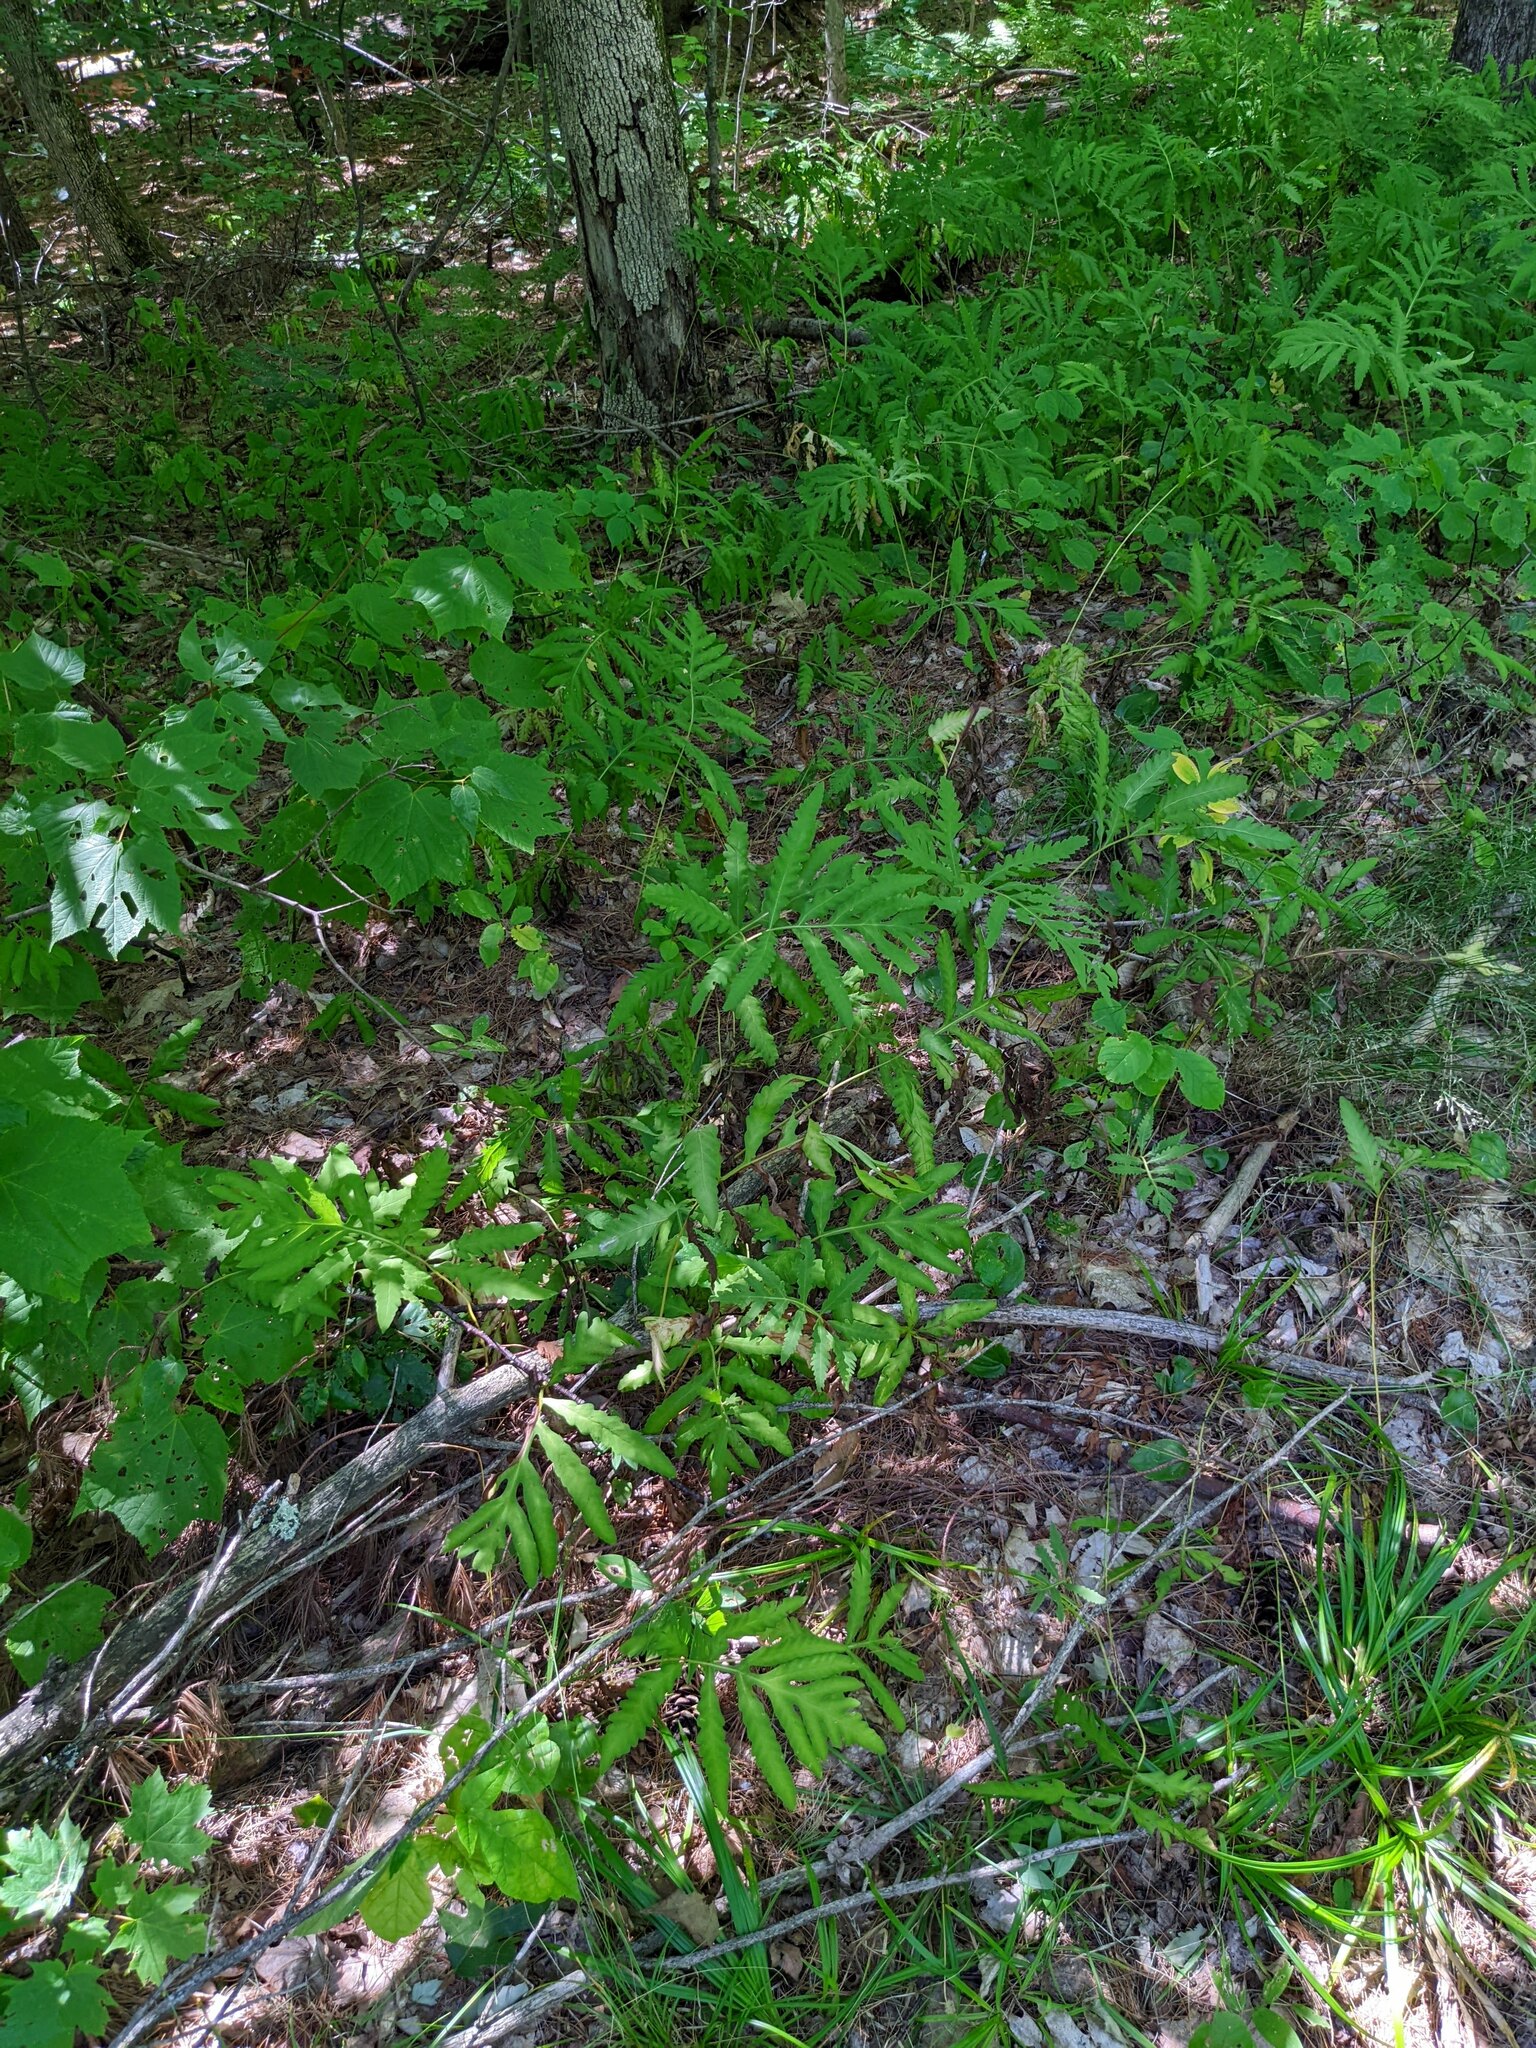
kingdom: Plantae
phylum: Tracheophyta
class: Polypodiopsida
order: Polypodiales
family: Onocleaceae
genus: Onoclea
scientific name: Onoclea sensibilis
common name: Sensitive fern
